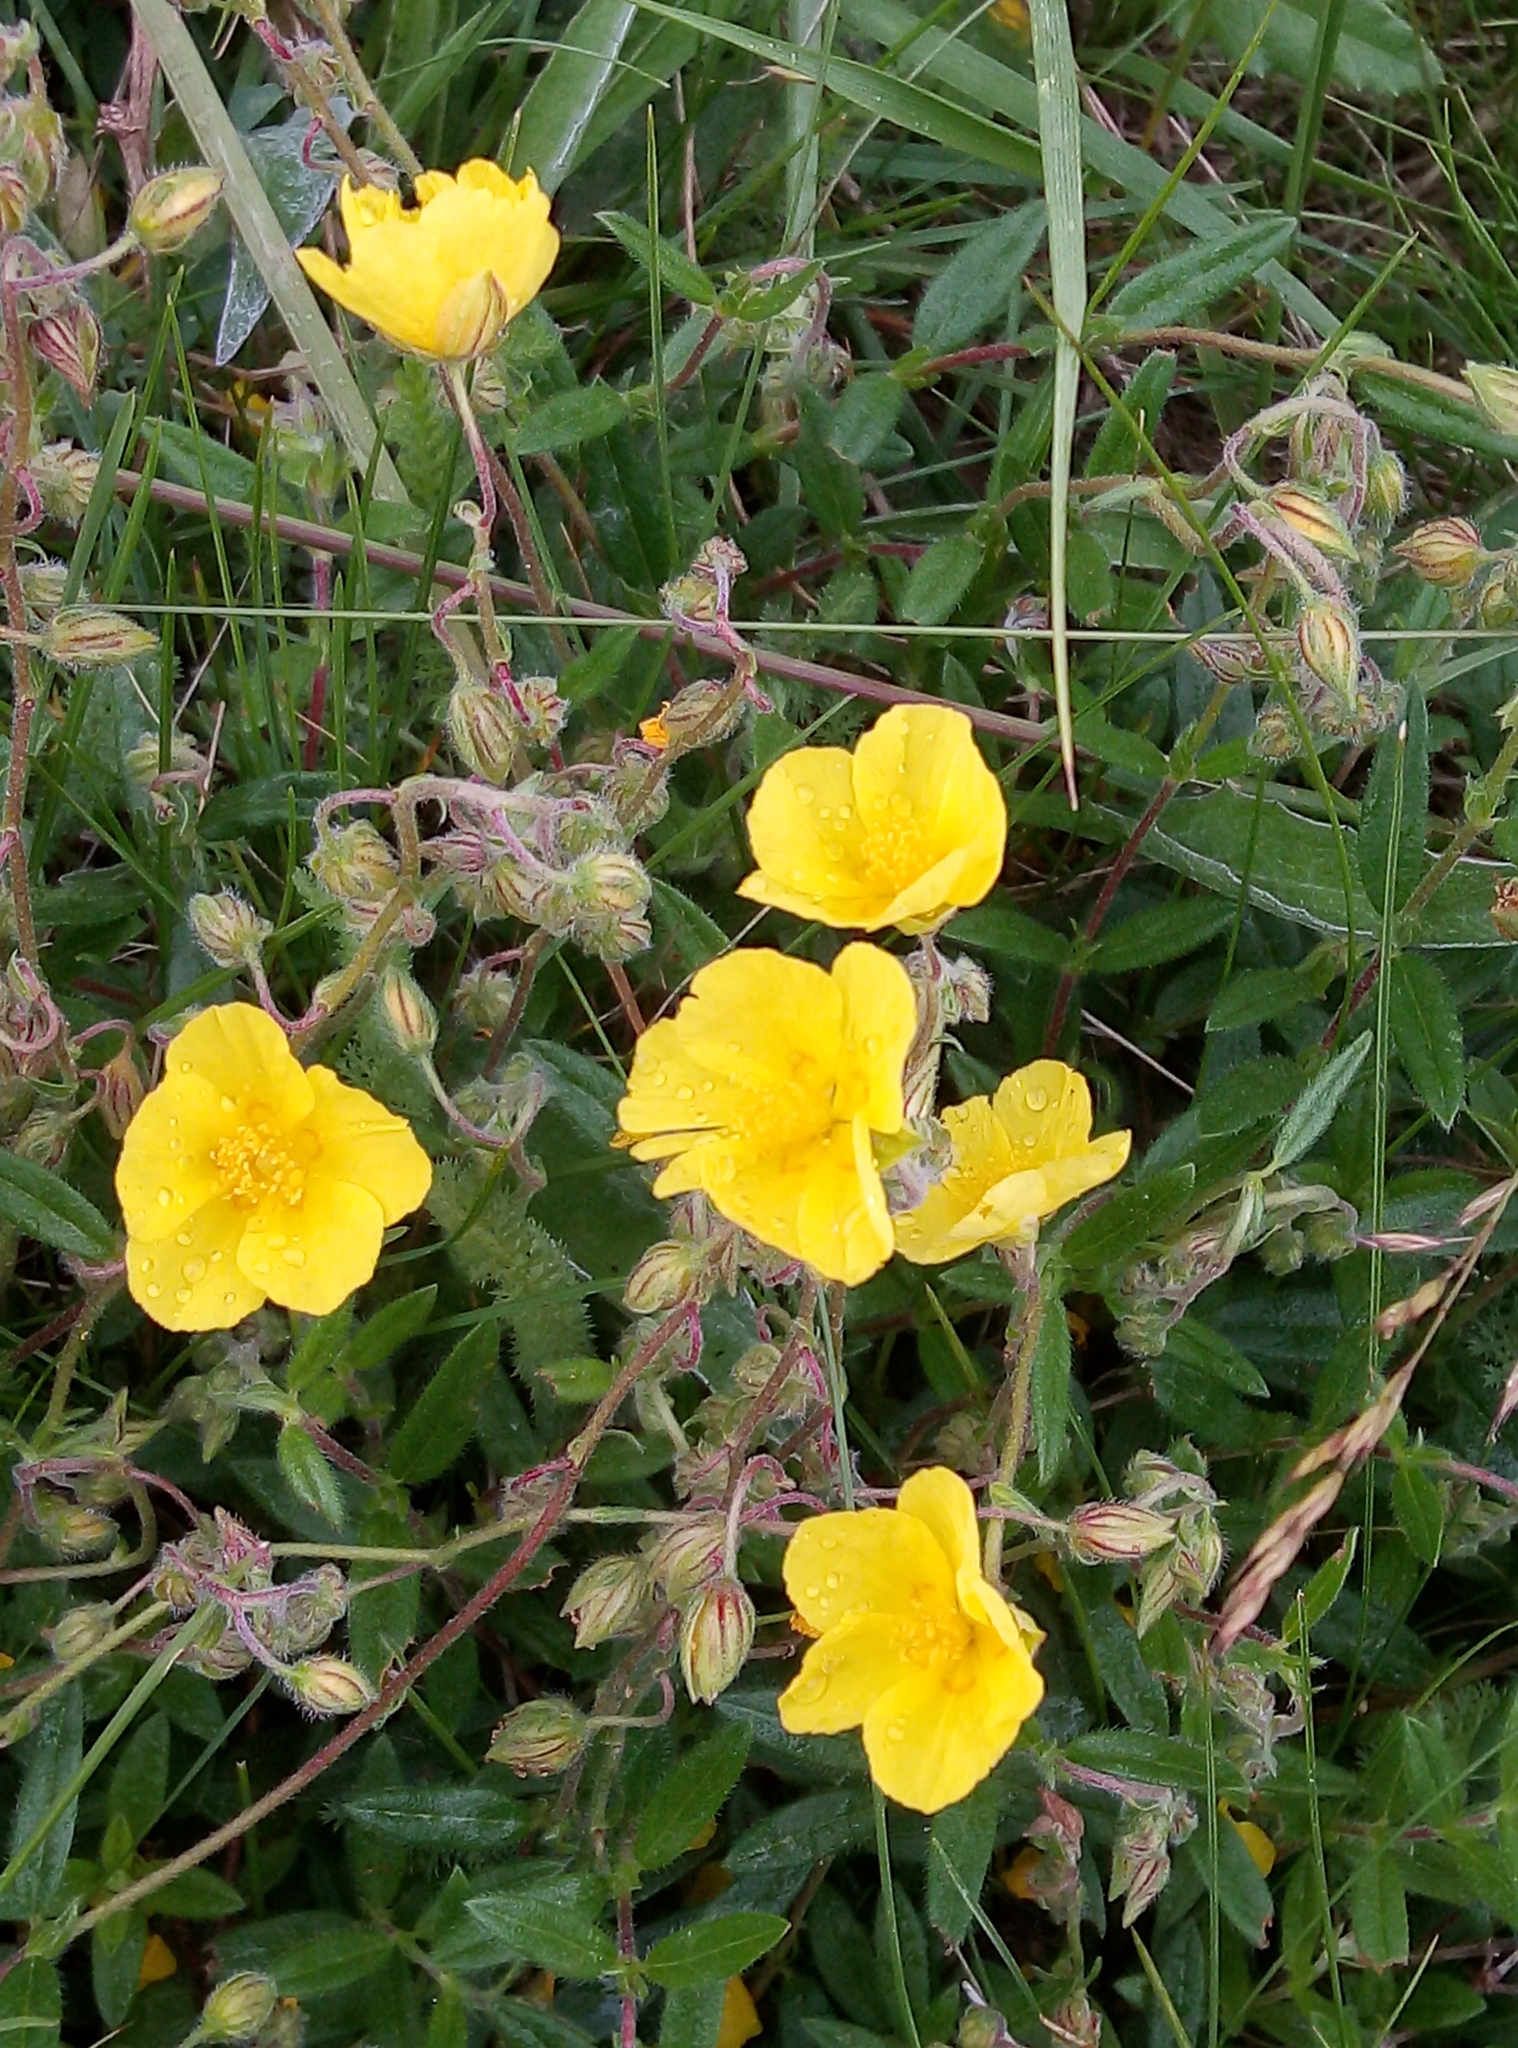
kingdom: Plantae
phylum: Tracheophyta
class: Magnoliopsida
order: Malvales
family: Cistaceae
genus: Helianthemum
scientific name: Helianthemum nummularium
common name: Common rock-rose
